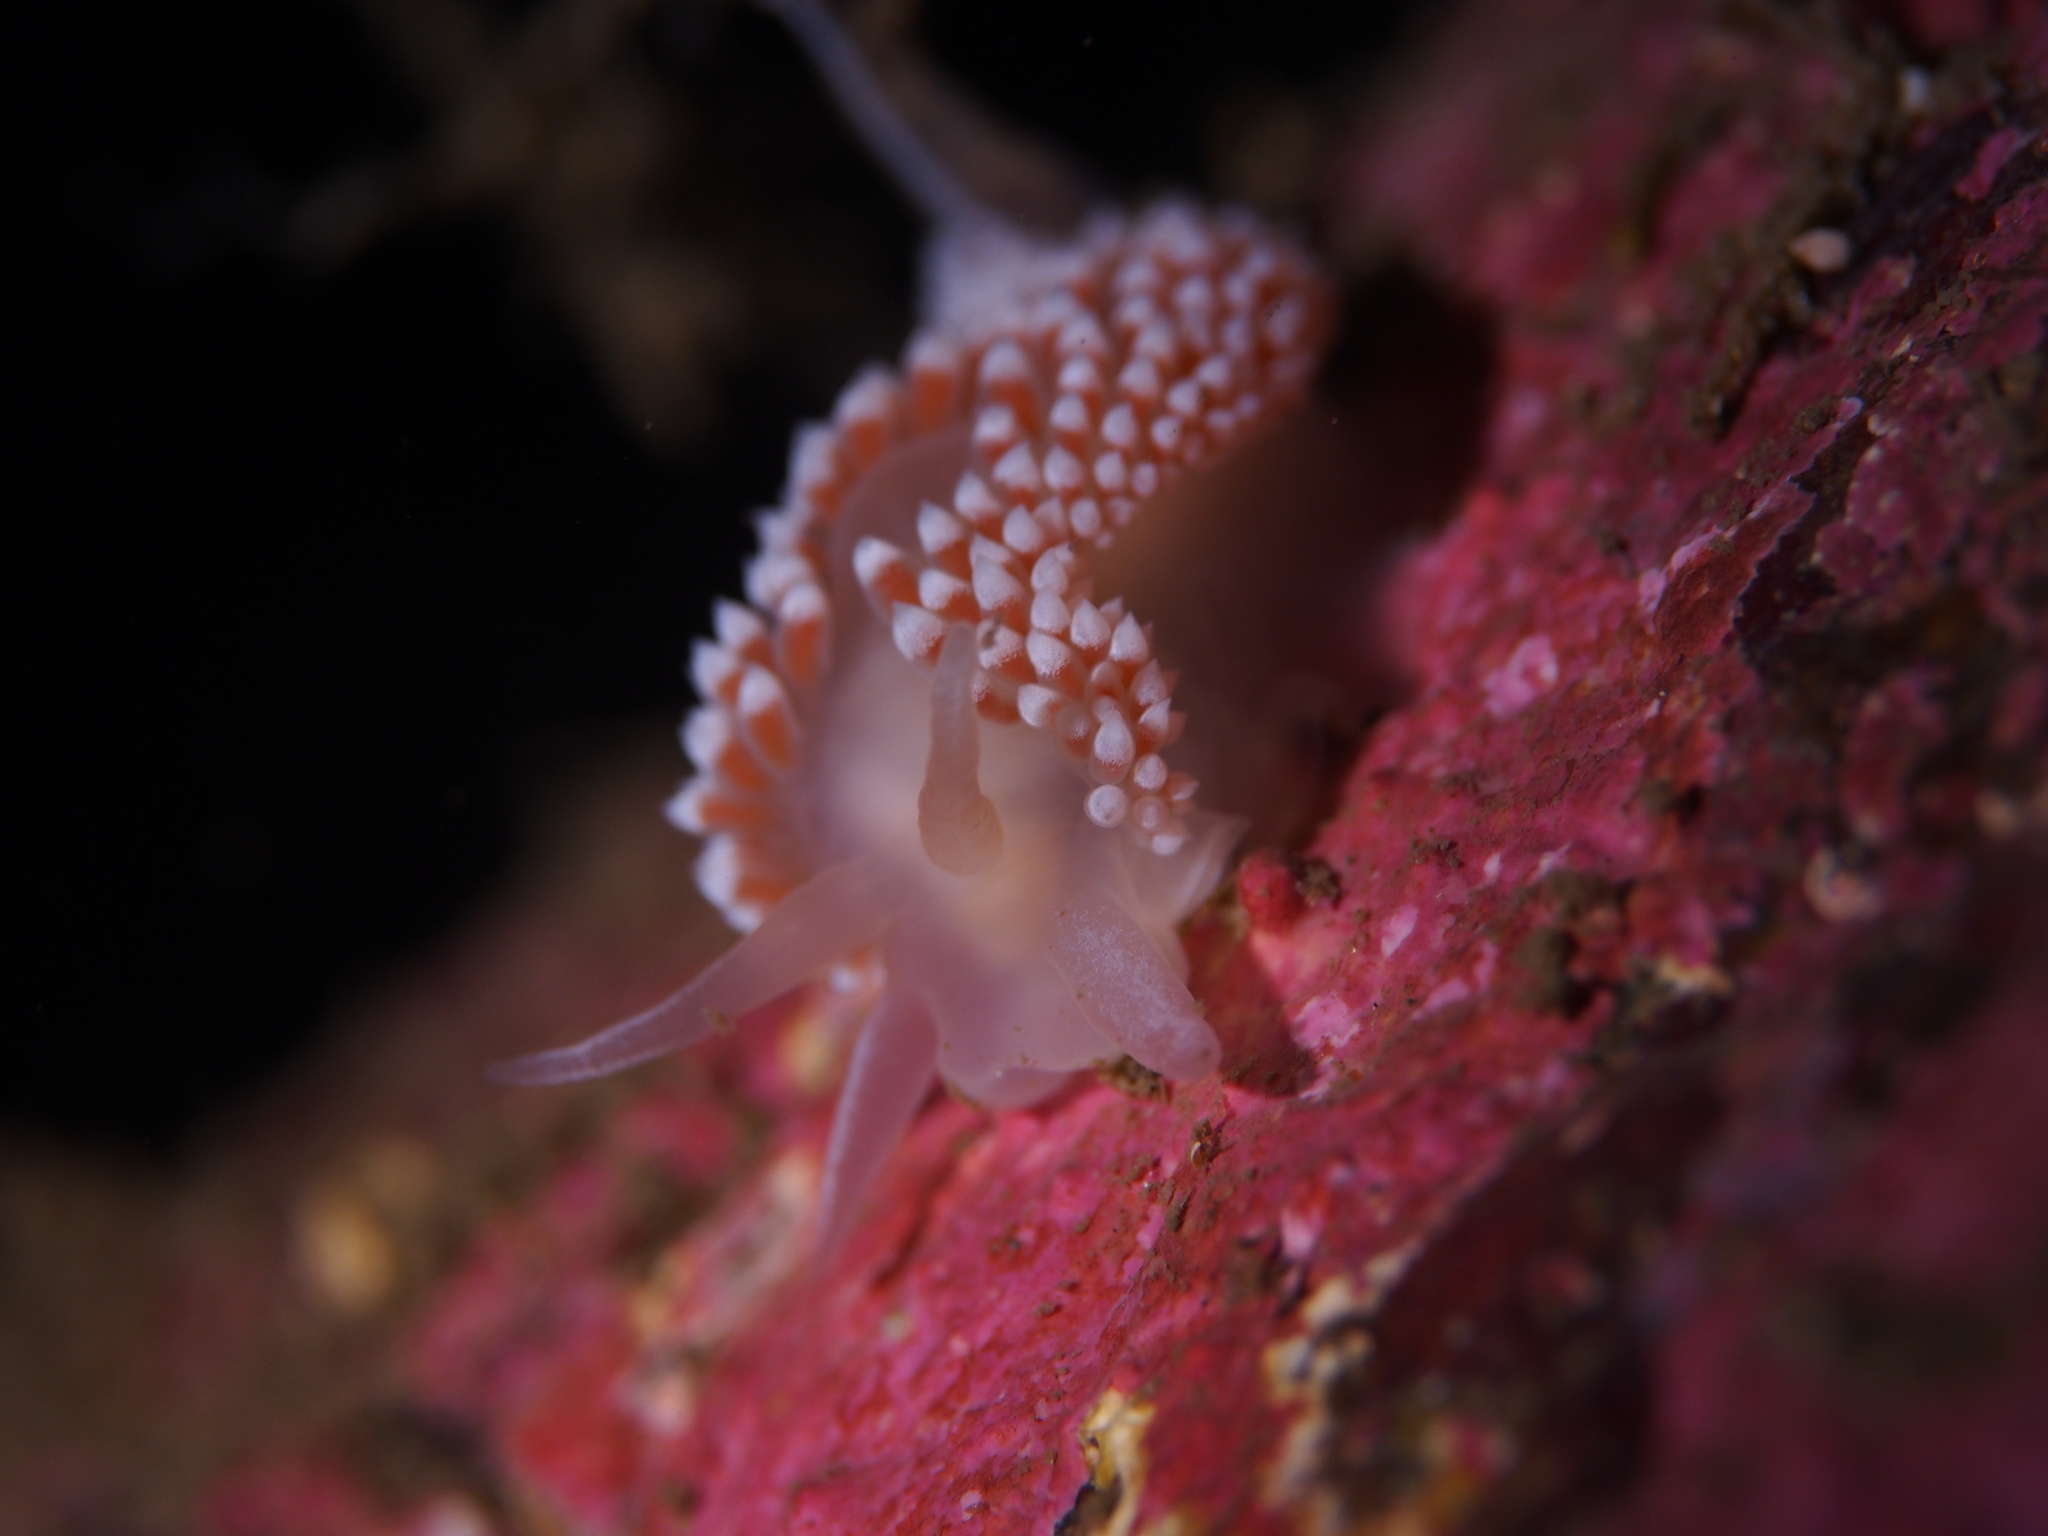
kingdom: Animalia
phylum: Mollusca
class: Gastropoda
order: Nudibranchia
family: Coryphellidae
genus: Coryphella
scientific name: Coryphella verrucosa
